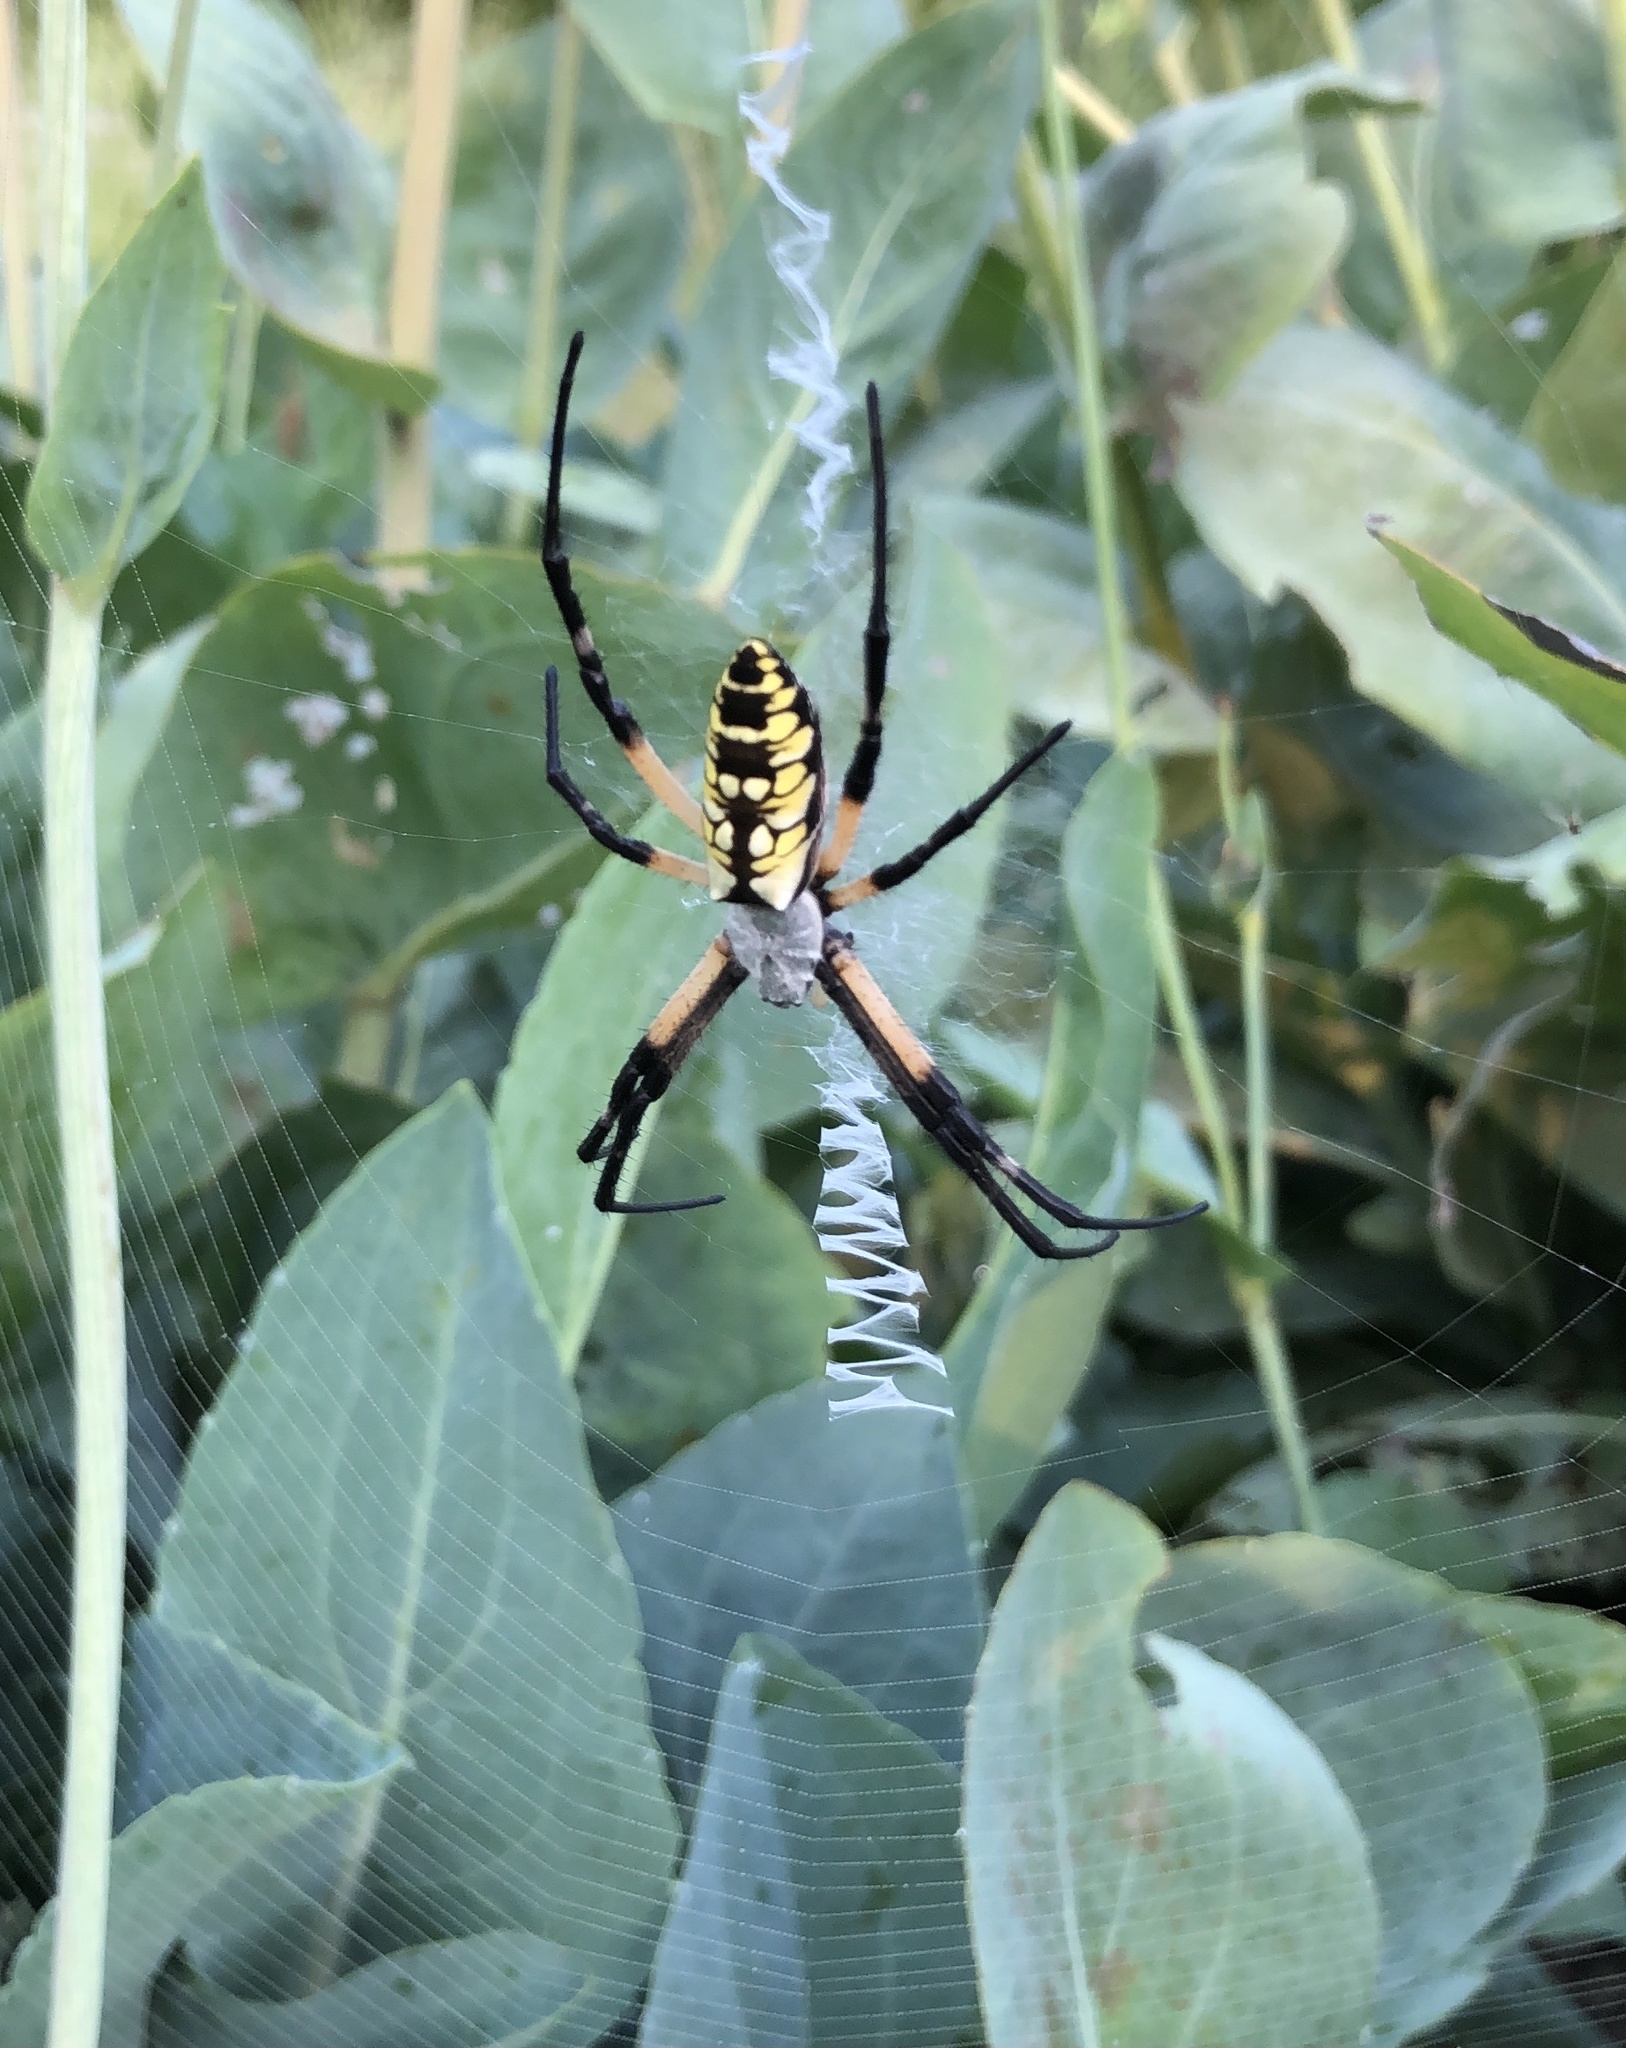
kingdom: Animalia
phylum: Arthropoda
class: Arachnida
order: Araneae
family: Araneidae
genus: Argiope
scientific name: Argiope aurantia
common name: Orb weavers
